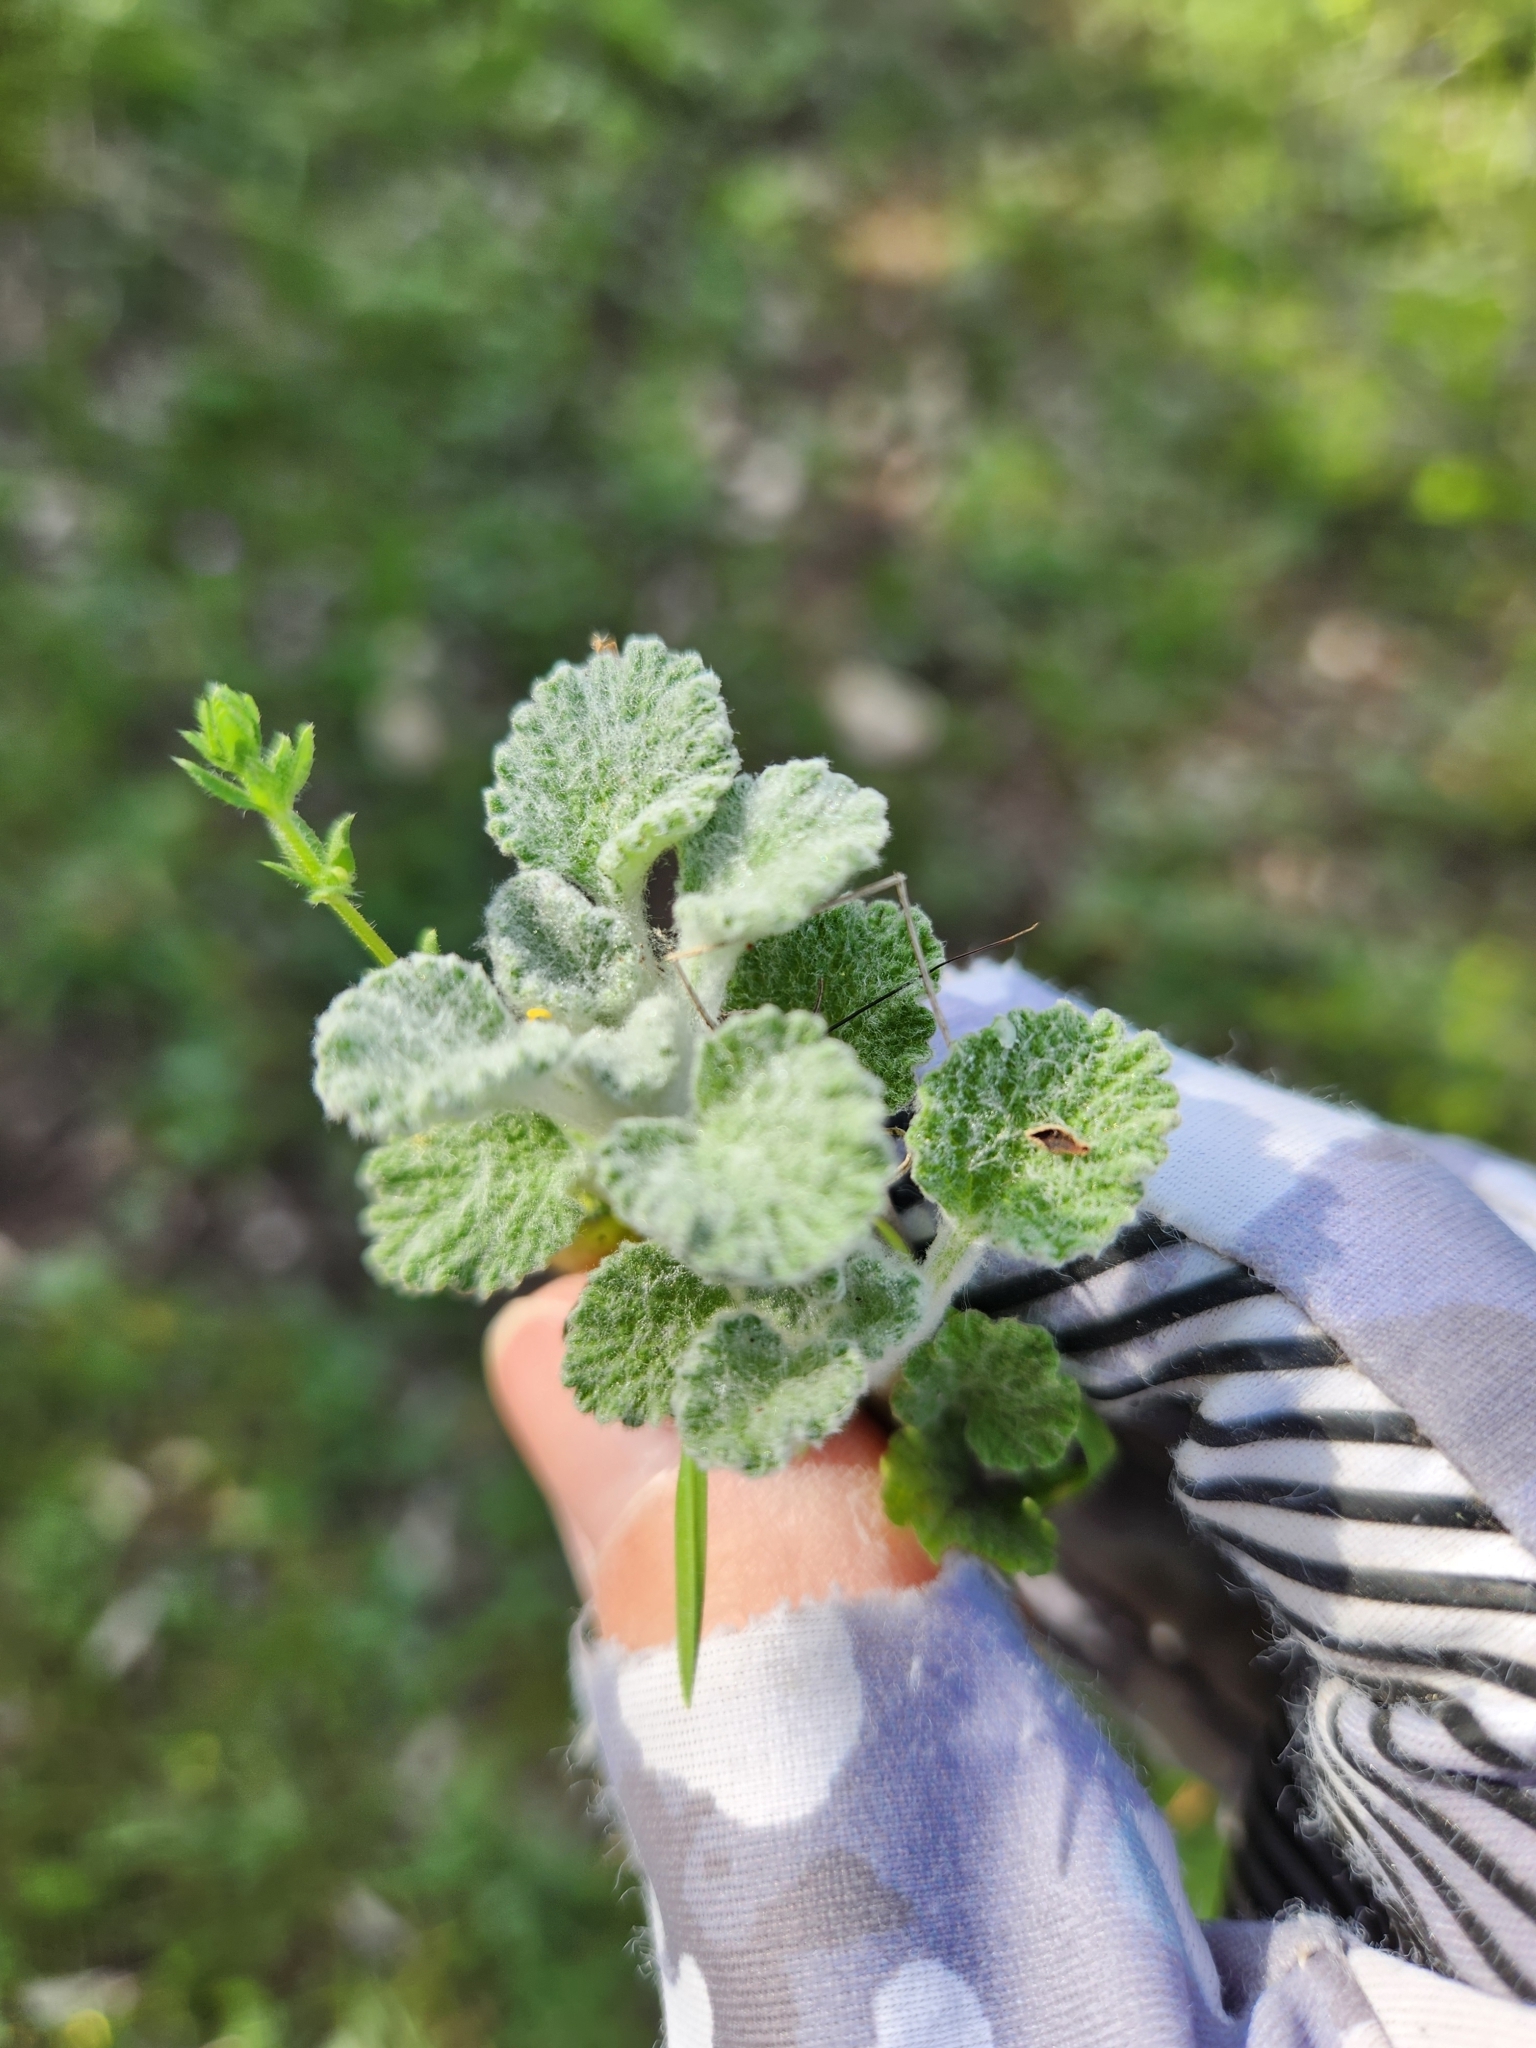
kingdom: Plantae
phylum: Tracheophyta
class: Magnoliopsida
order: Lamiales
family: Lamiaceae
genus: Marrubium
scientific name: Marrubium vulgare
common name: Horehound
